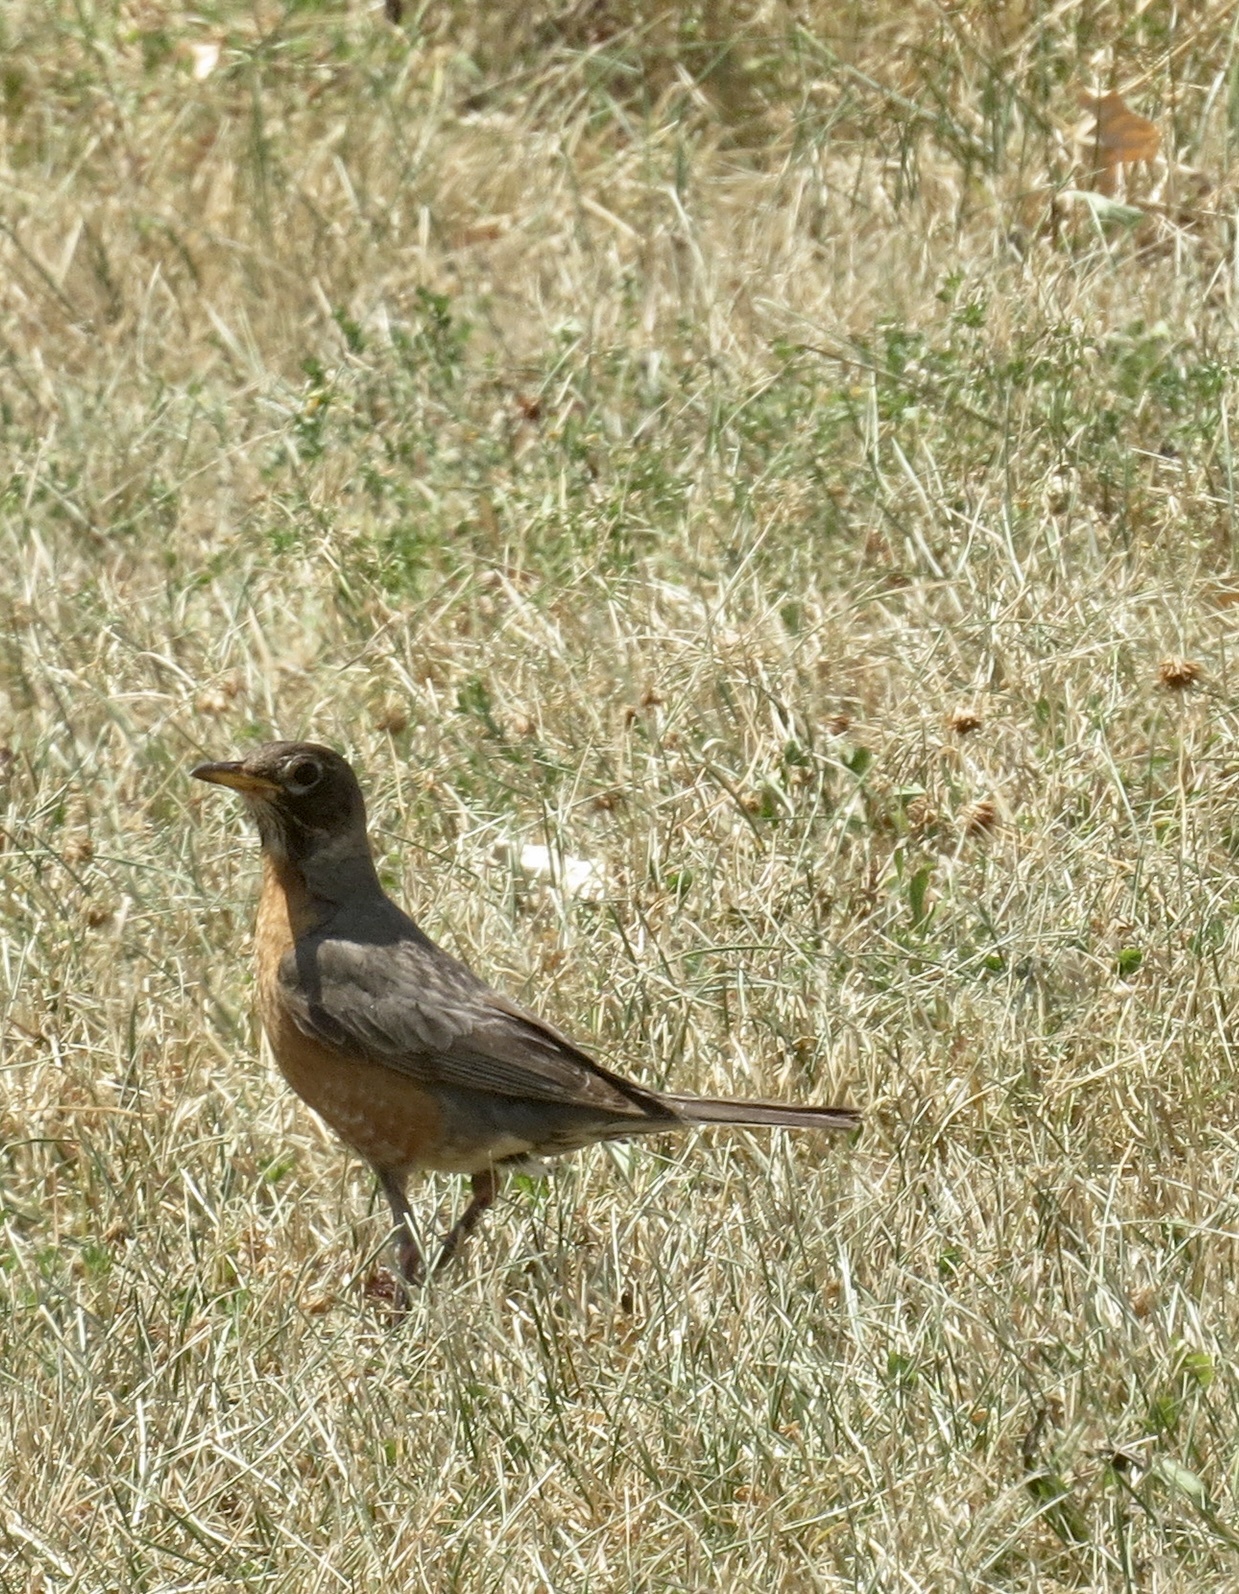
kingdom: Animalia
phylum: Chordata
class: Aves
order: Passeriformes
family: Turdidae
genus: Turdus
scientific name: Turdus migratorius
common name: American robin
